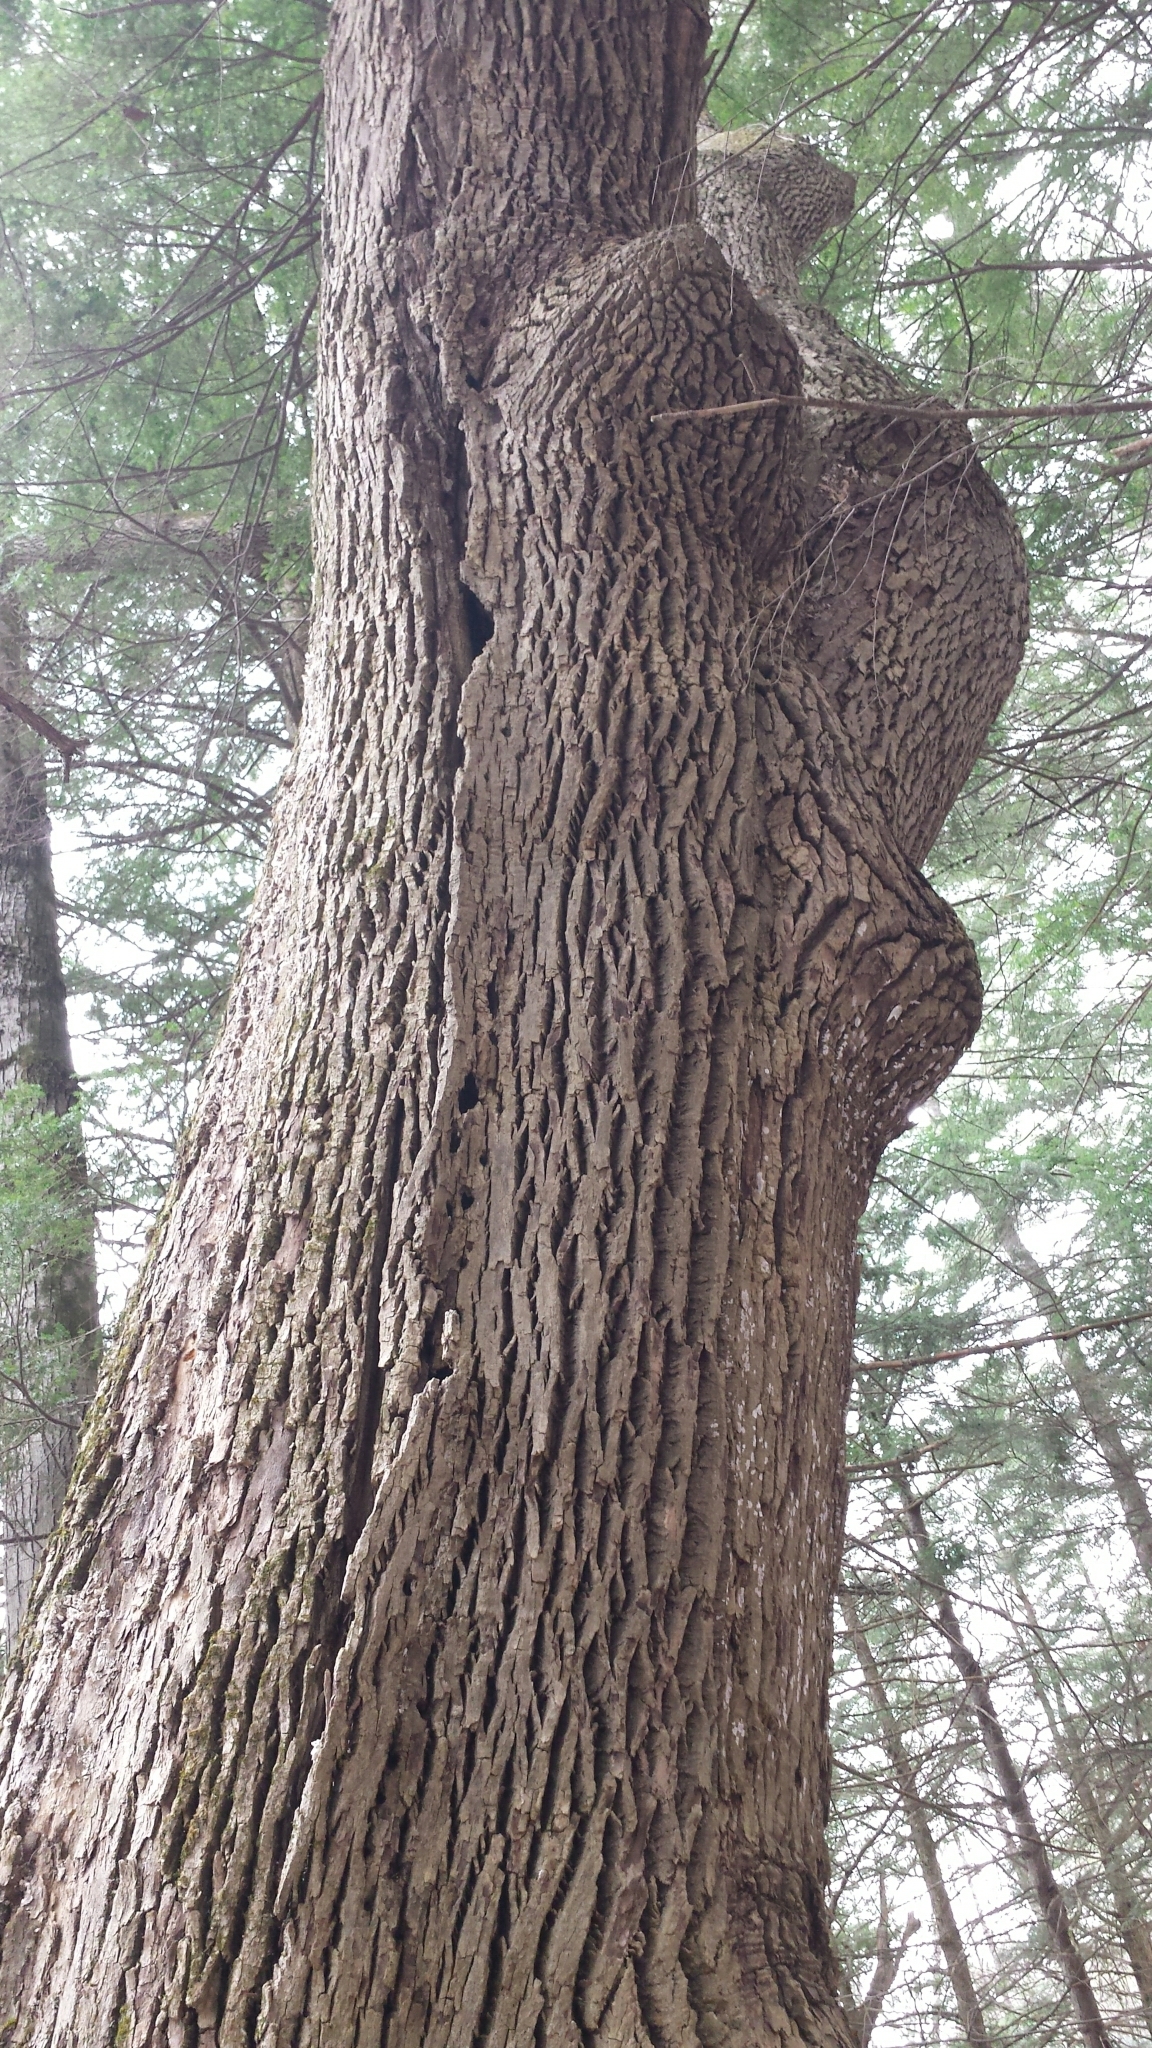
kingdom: Plantae
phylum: Tracheophyta
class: Magnoliopsida
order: Lamiales
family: Oleaceae
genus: Fraxinus
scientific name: Fraxinus americana
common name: White ash
